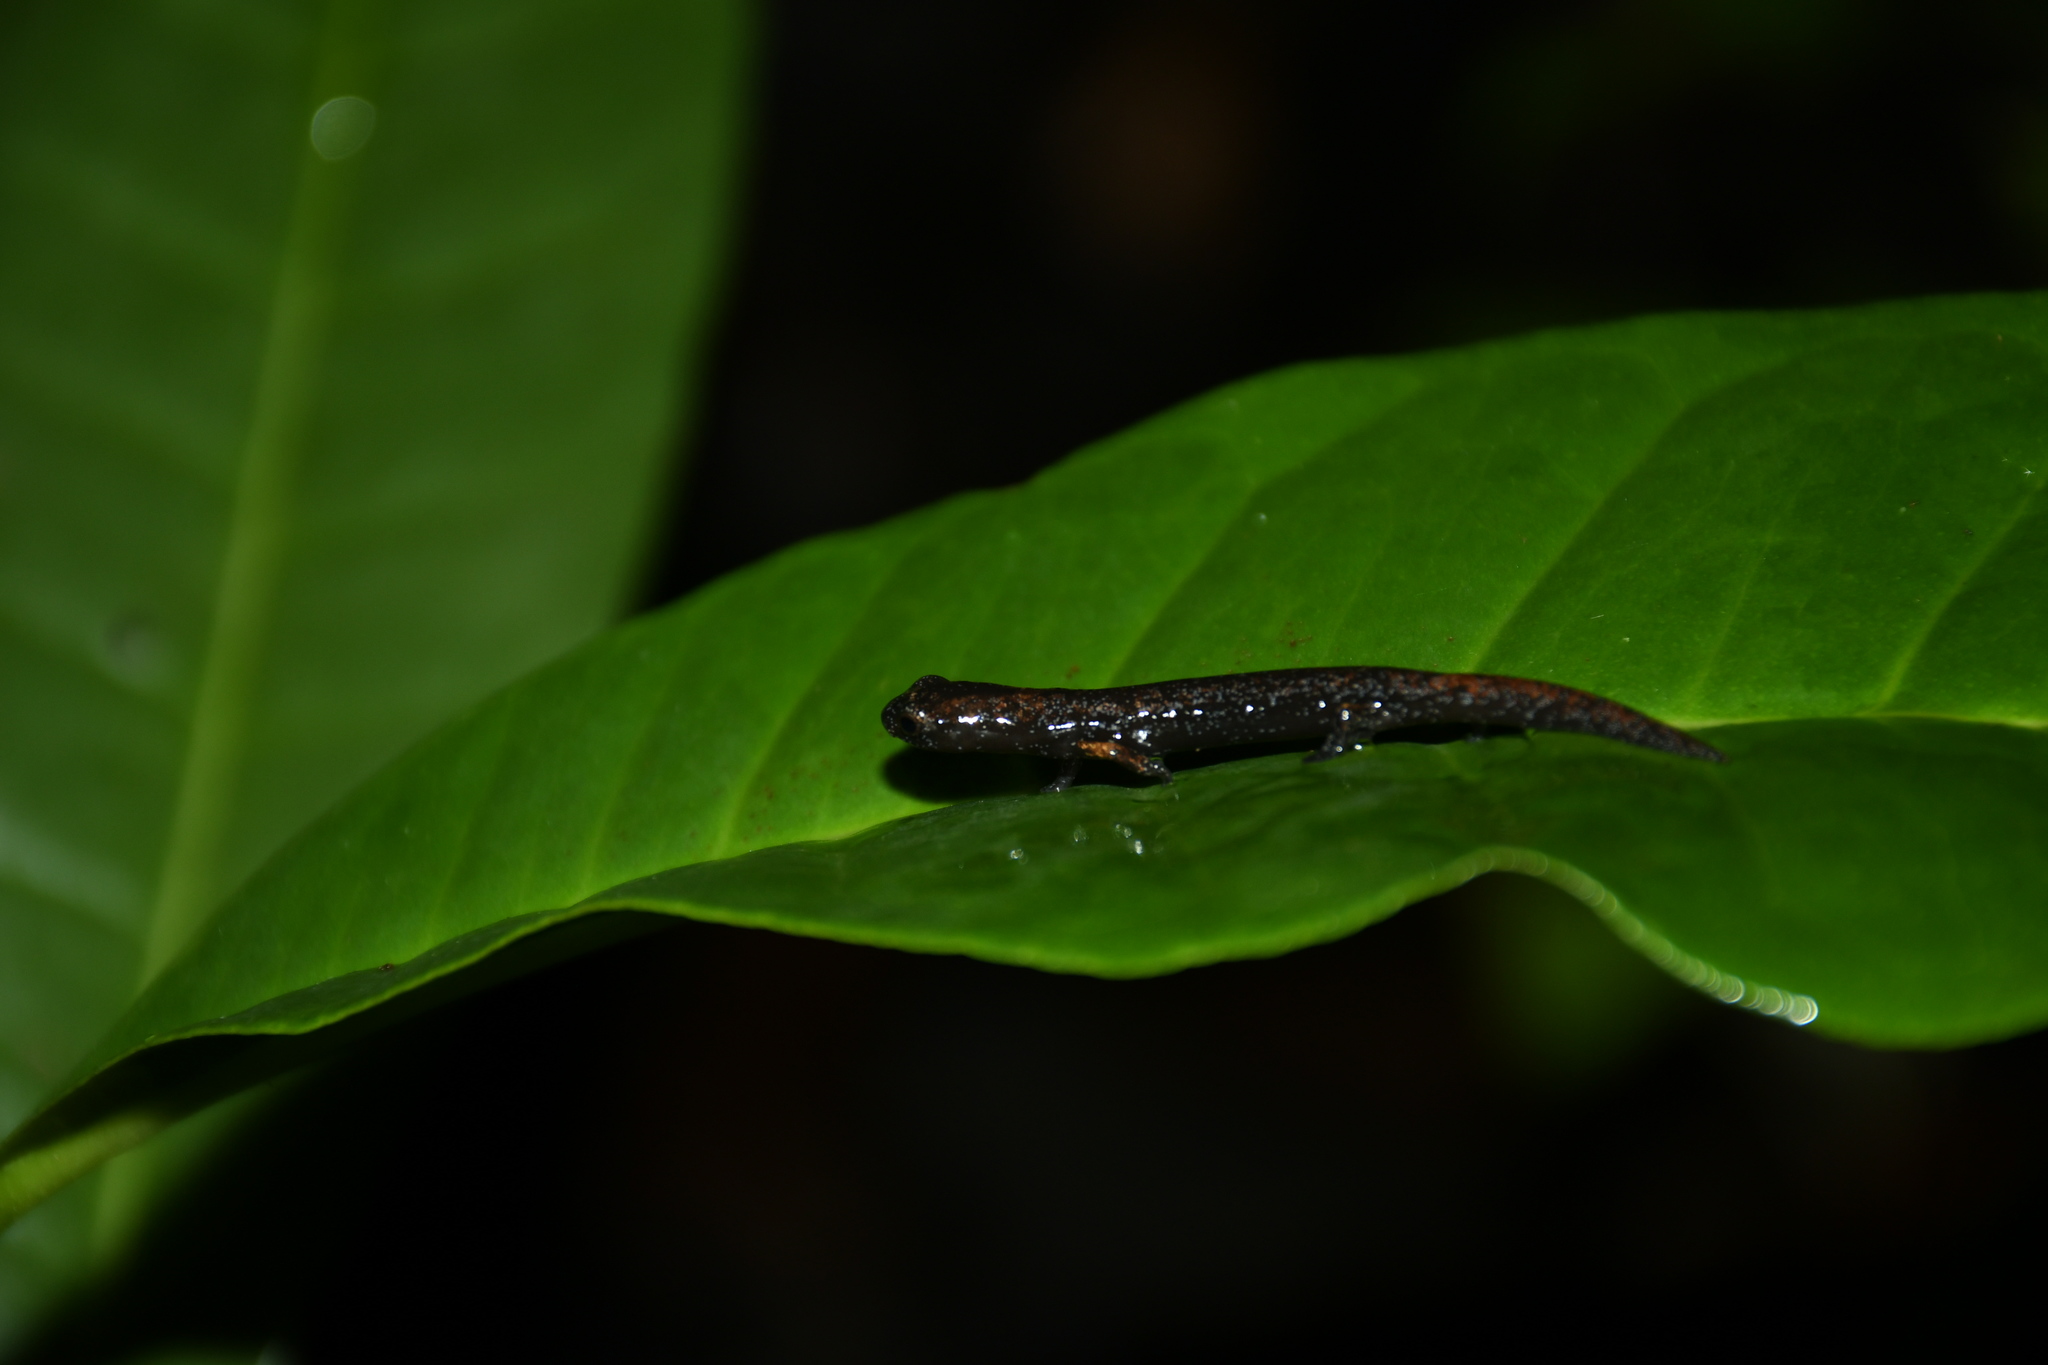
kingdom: Animalia
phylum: Chordata
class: Amphibia
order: Caudata
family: Plethodontidae
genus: Bolitoglossa
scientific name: Bolitoglossa yucatana
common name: Yucatan mushroomtongue salamander
